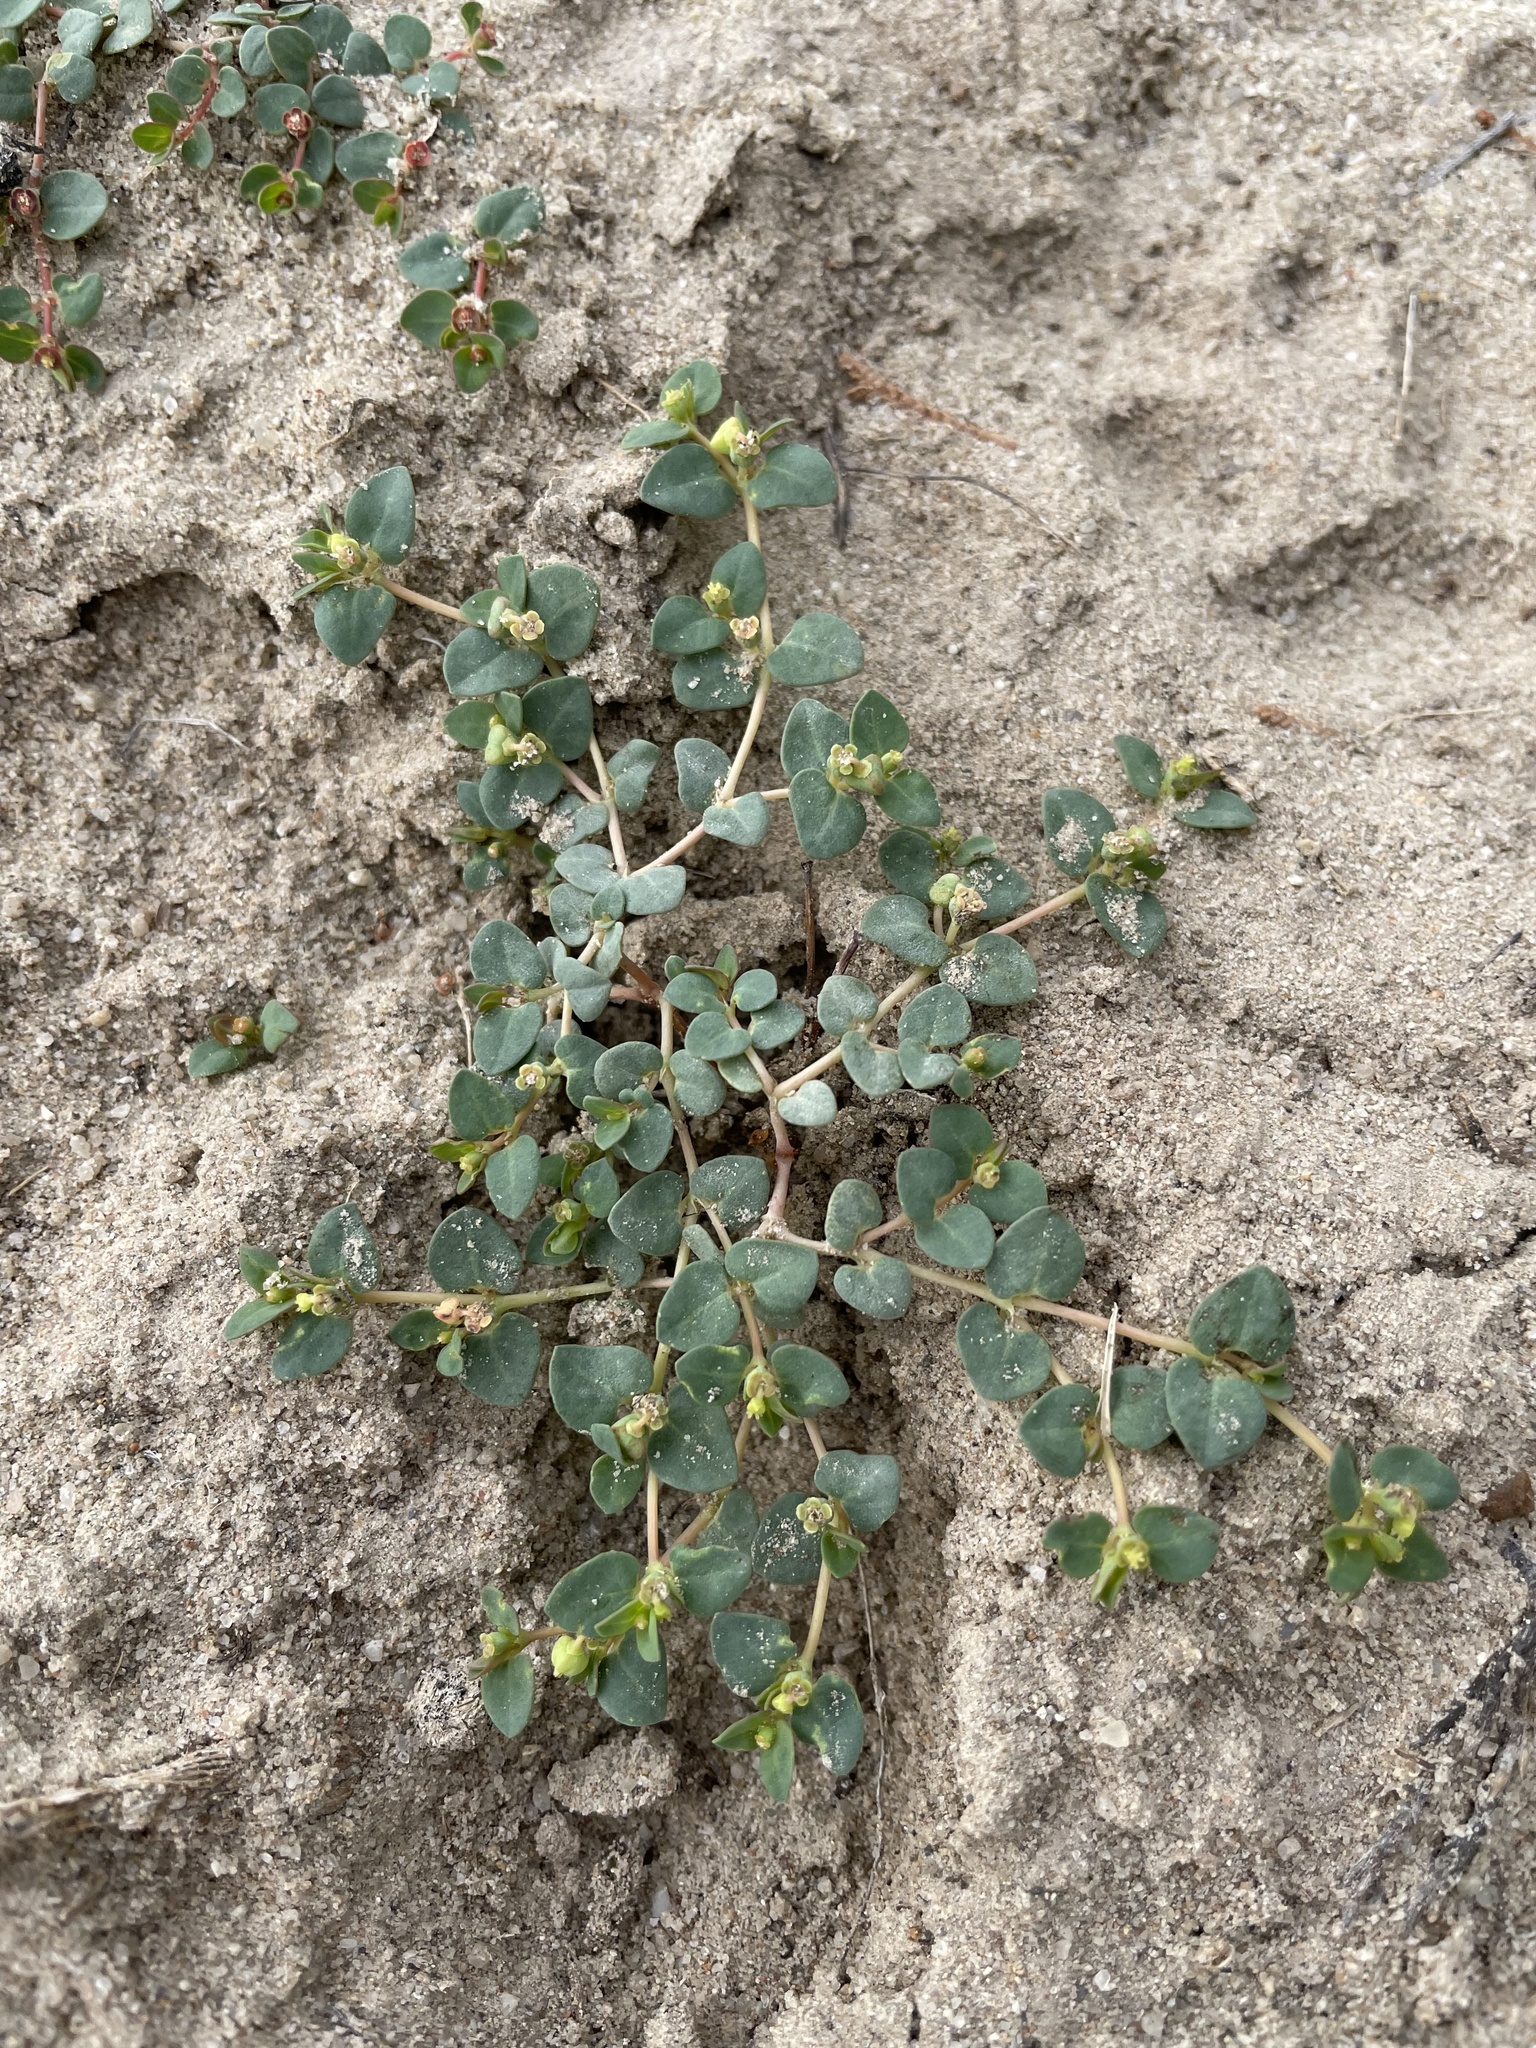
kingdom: Plantae
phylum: Tracheophyta
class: Magnoliopsida
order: Malpighiales
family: Euphorbiaceae
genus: Euphorbia
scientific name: Euphorbia fendleri
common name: Fendler's euphorbia
